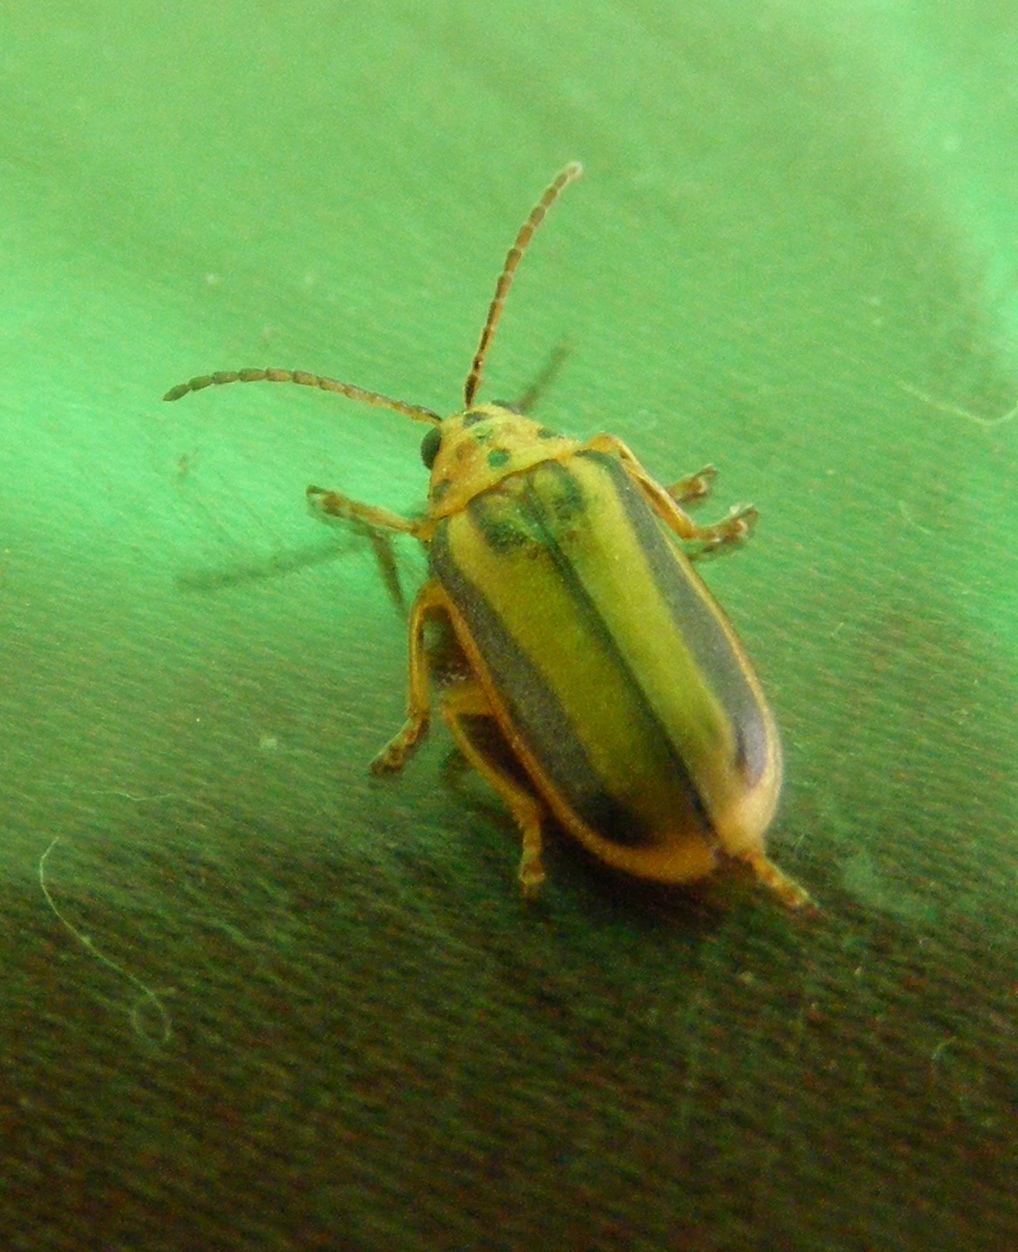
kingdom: Animalia
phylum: Arthropoda
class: Insecta
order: Coleoptera
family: Chrysomelidae
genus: Xanthogaleruca
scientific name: Xanthogaleruca luteola
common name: Elm leaf beetle
